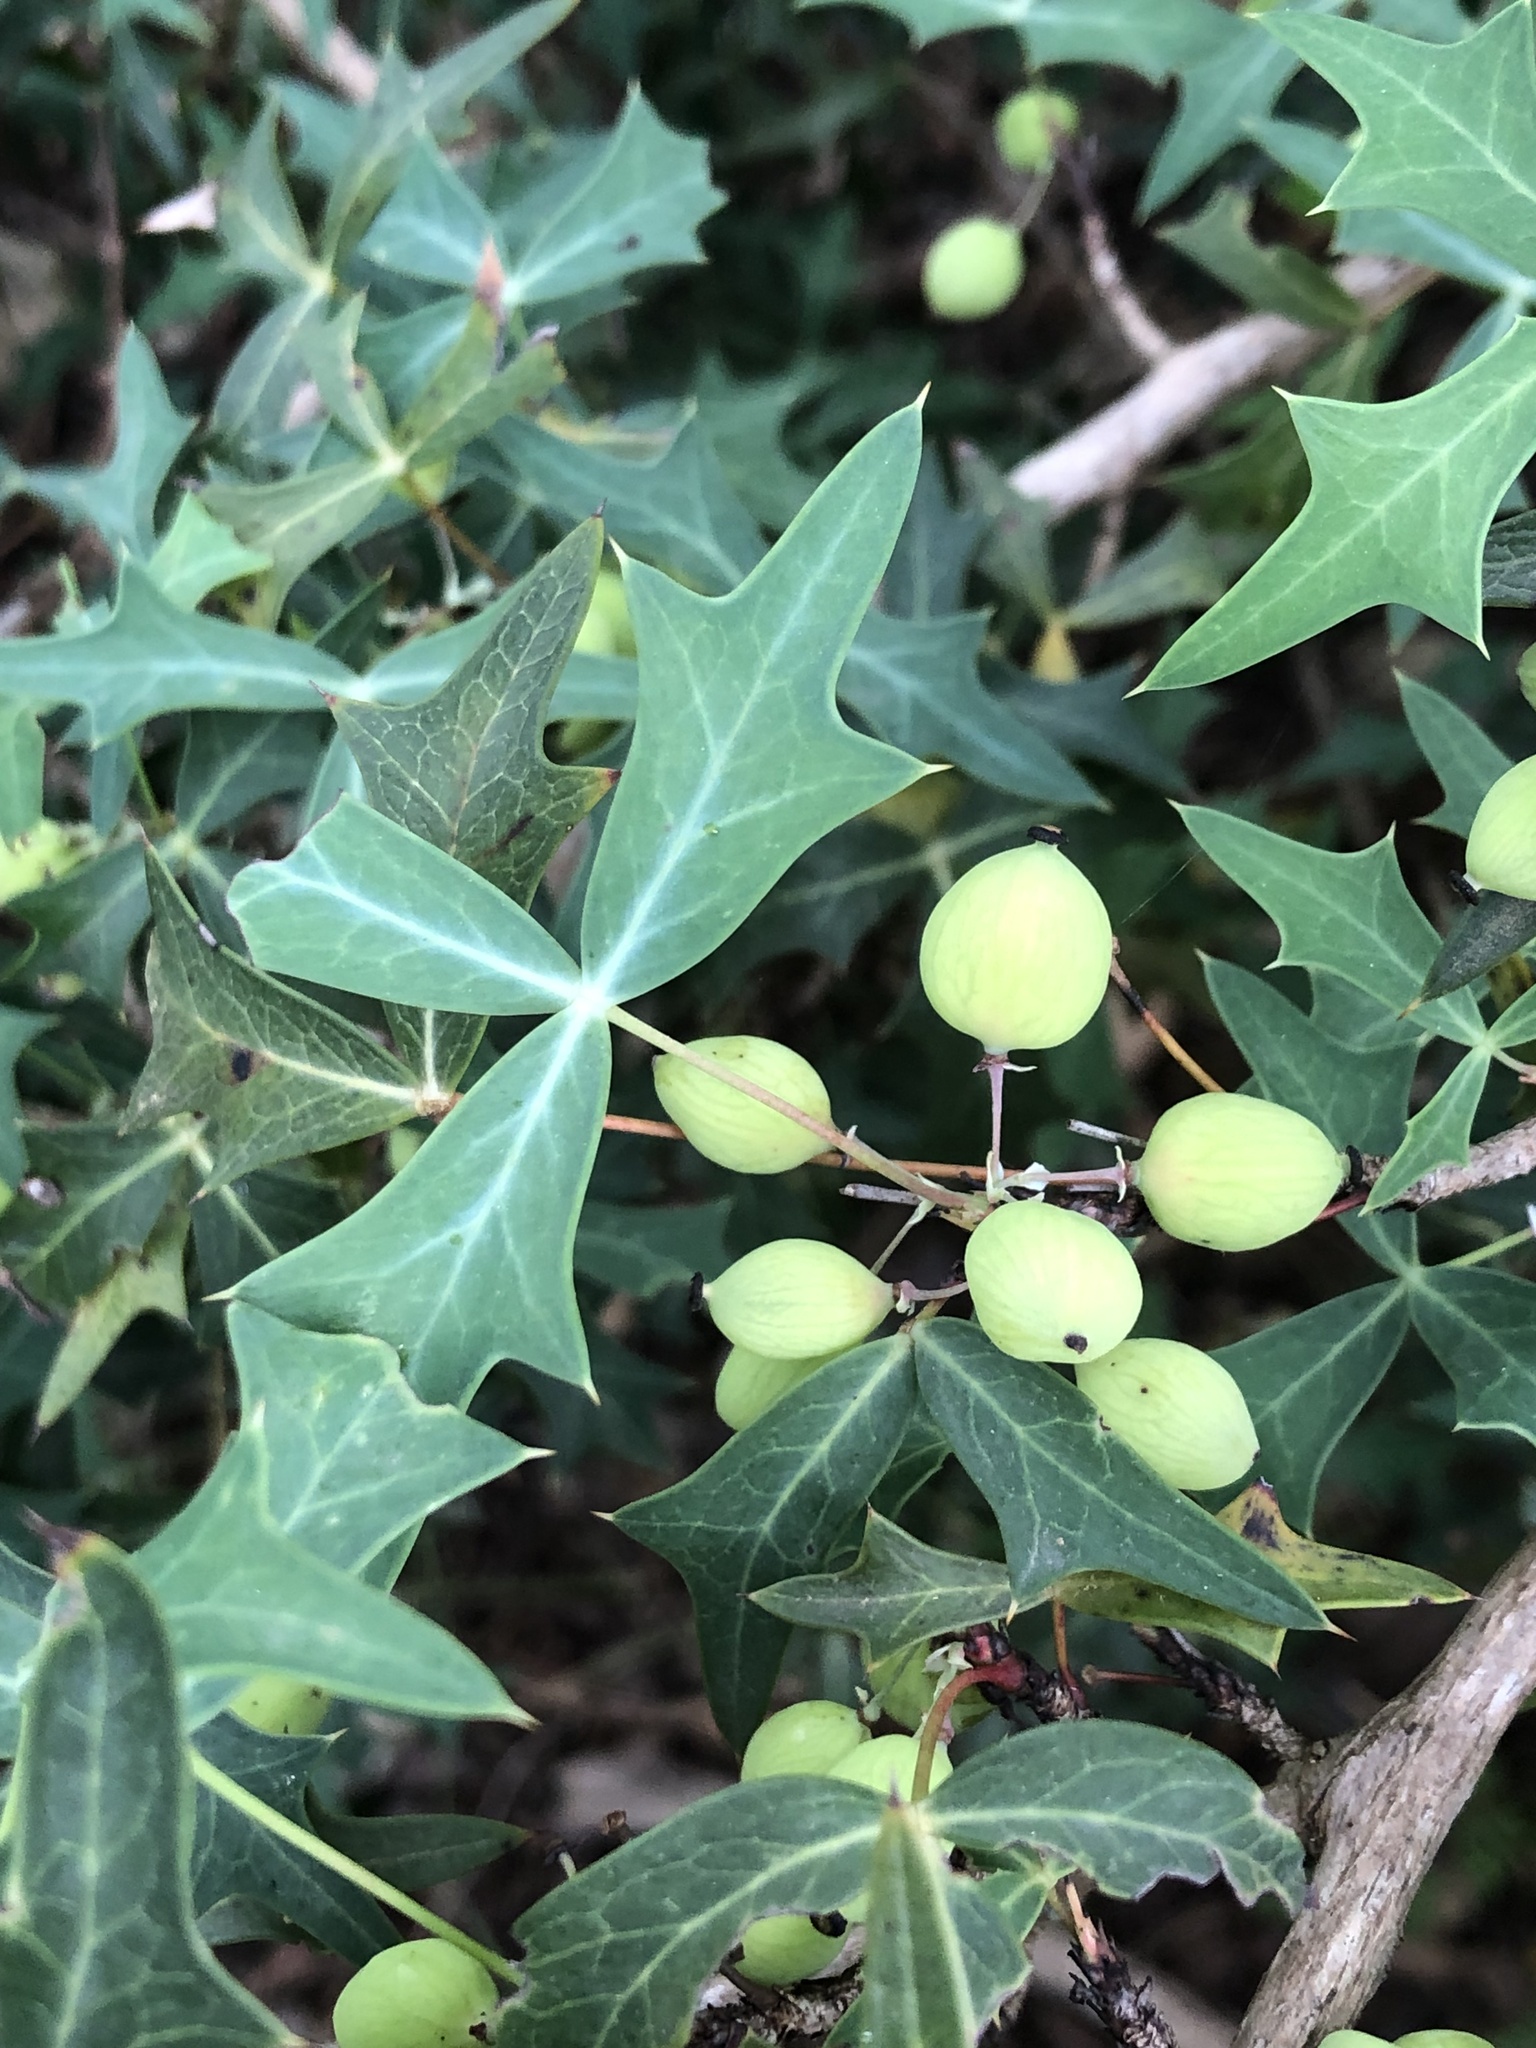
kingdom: Plantae
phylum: Tracheophyta
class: Magnoliopsida
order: Ranunculales
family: Berberidaceae
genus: Alloberberis
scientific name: Alloberberis trifoliolata
